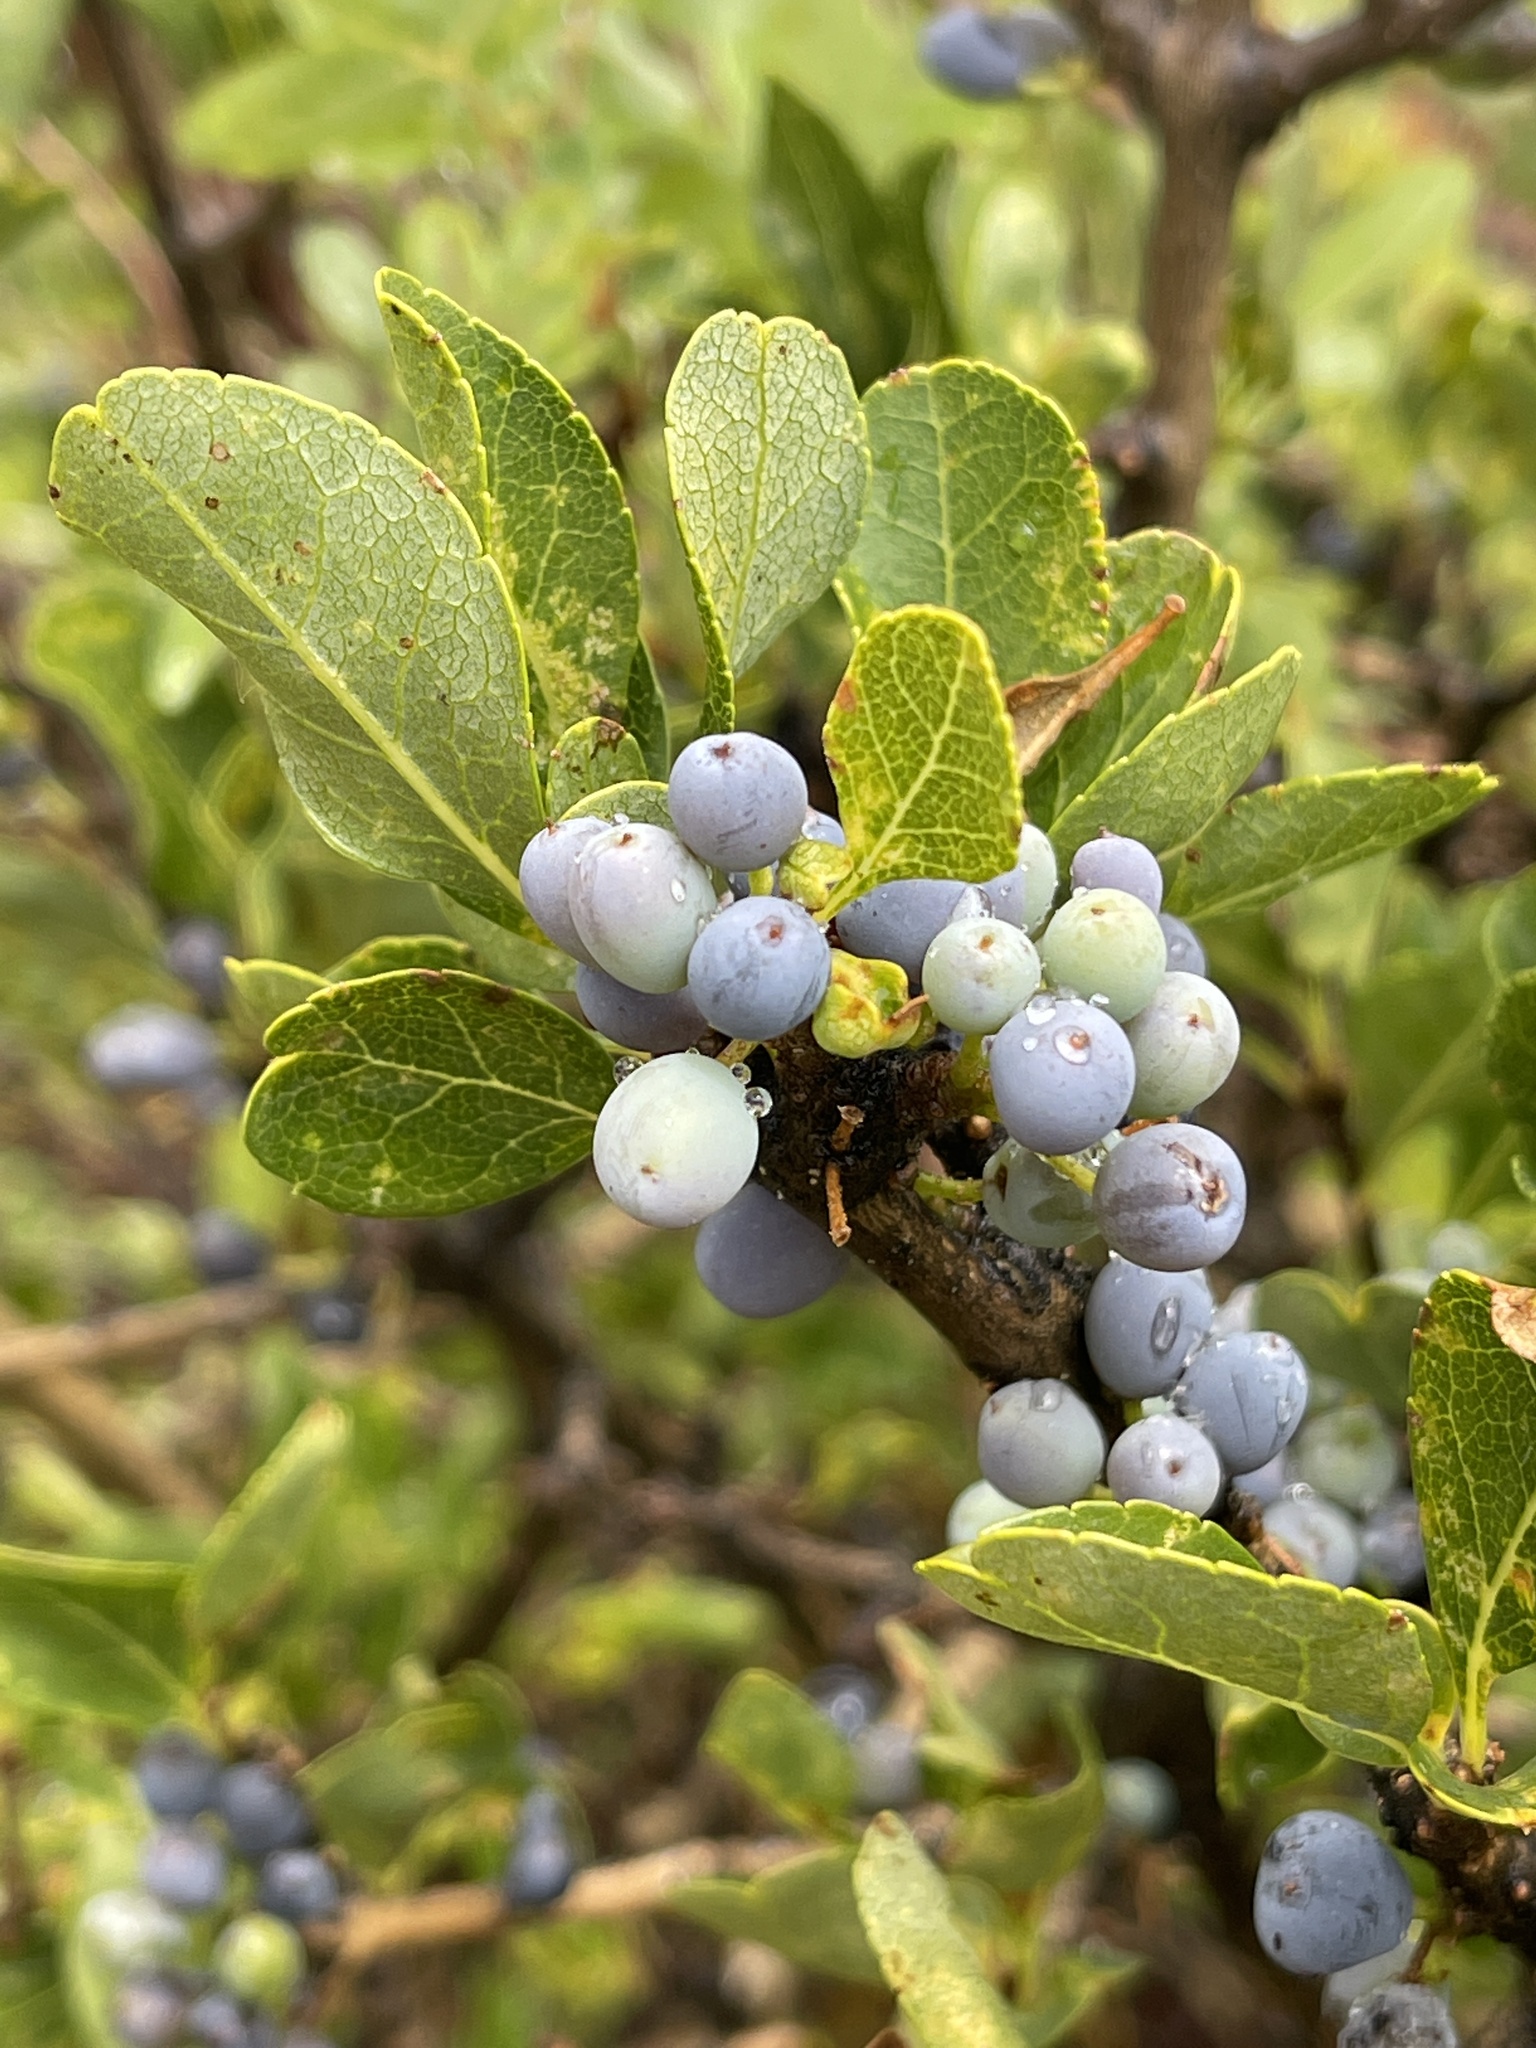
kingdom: Plantae
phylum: Tracheophyta
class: Magnoliopsida
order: Lamiales
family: Oleaceae
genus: Forestiera
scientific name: Forestiera pubescens
